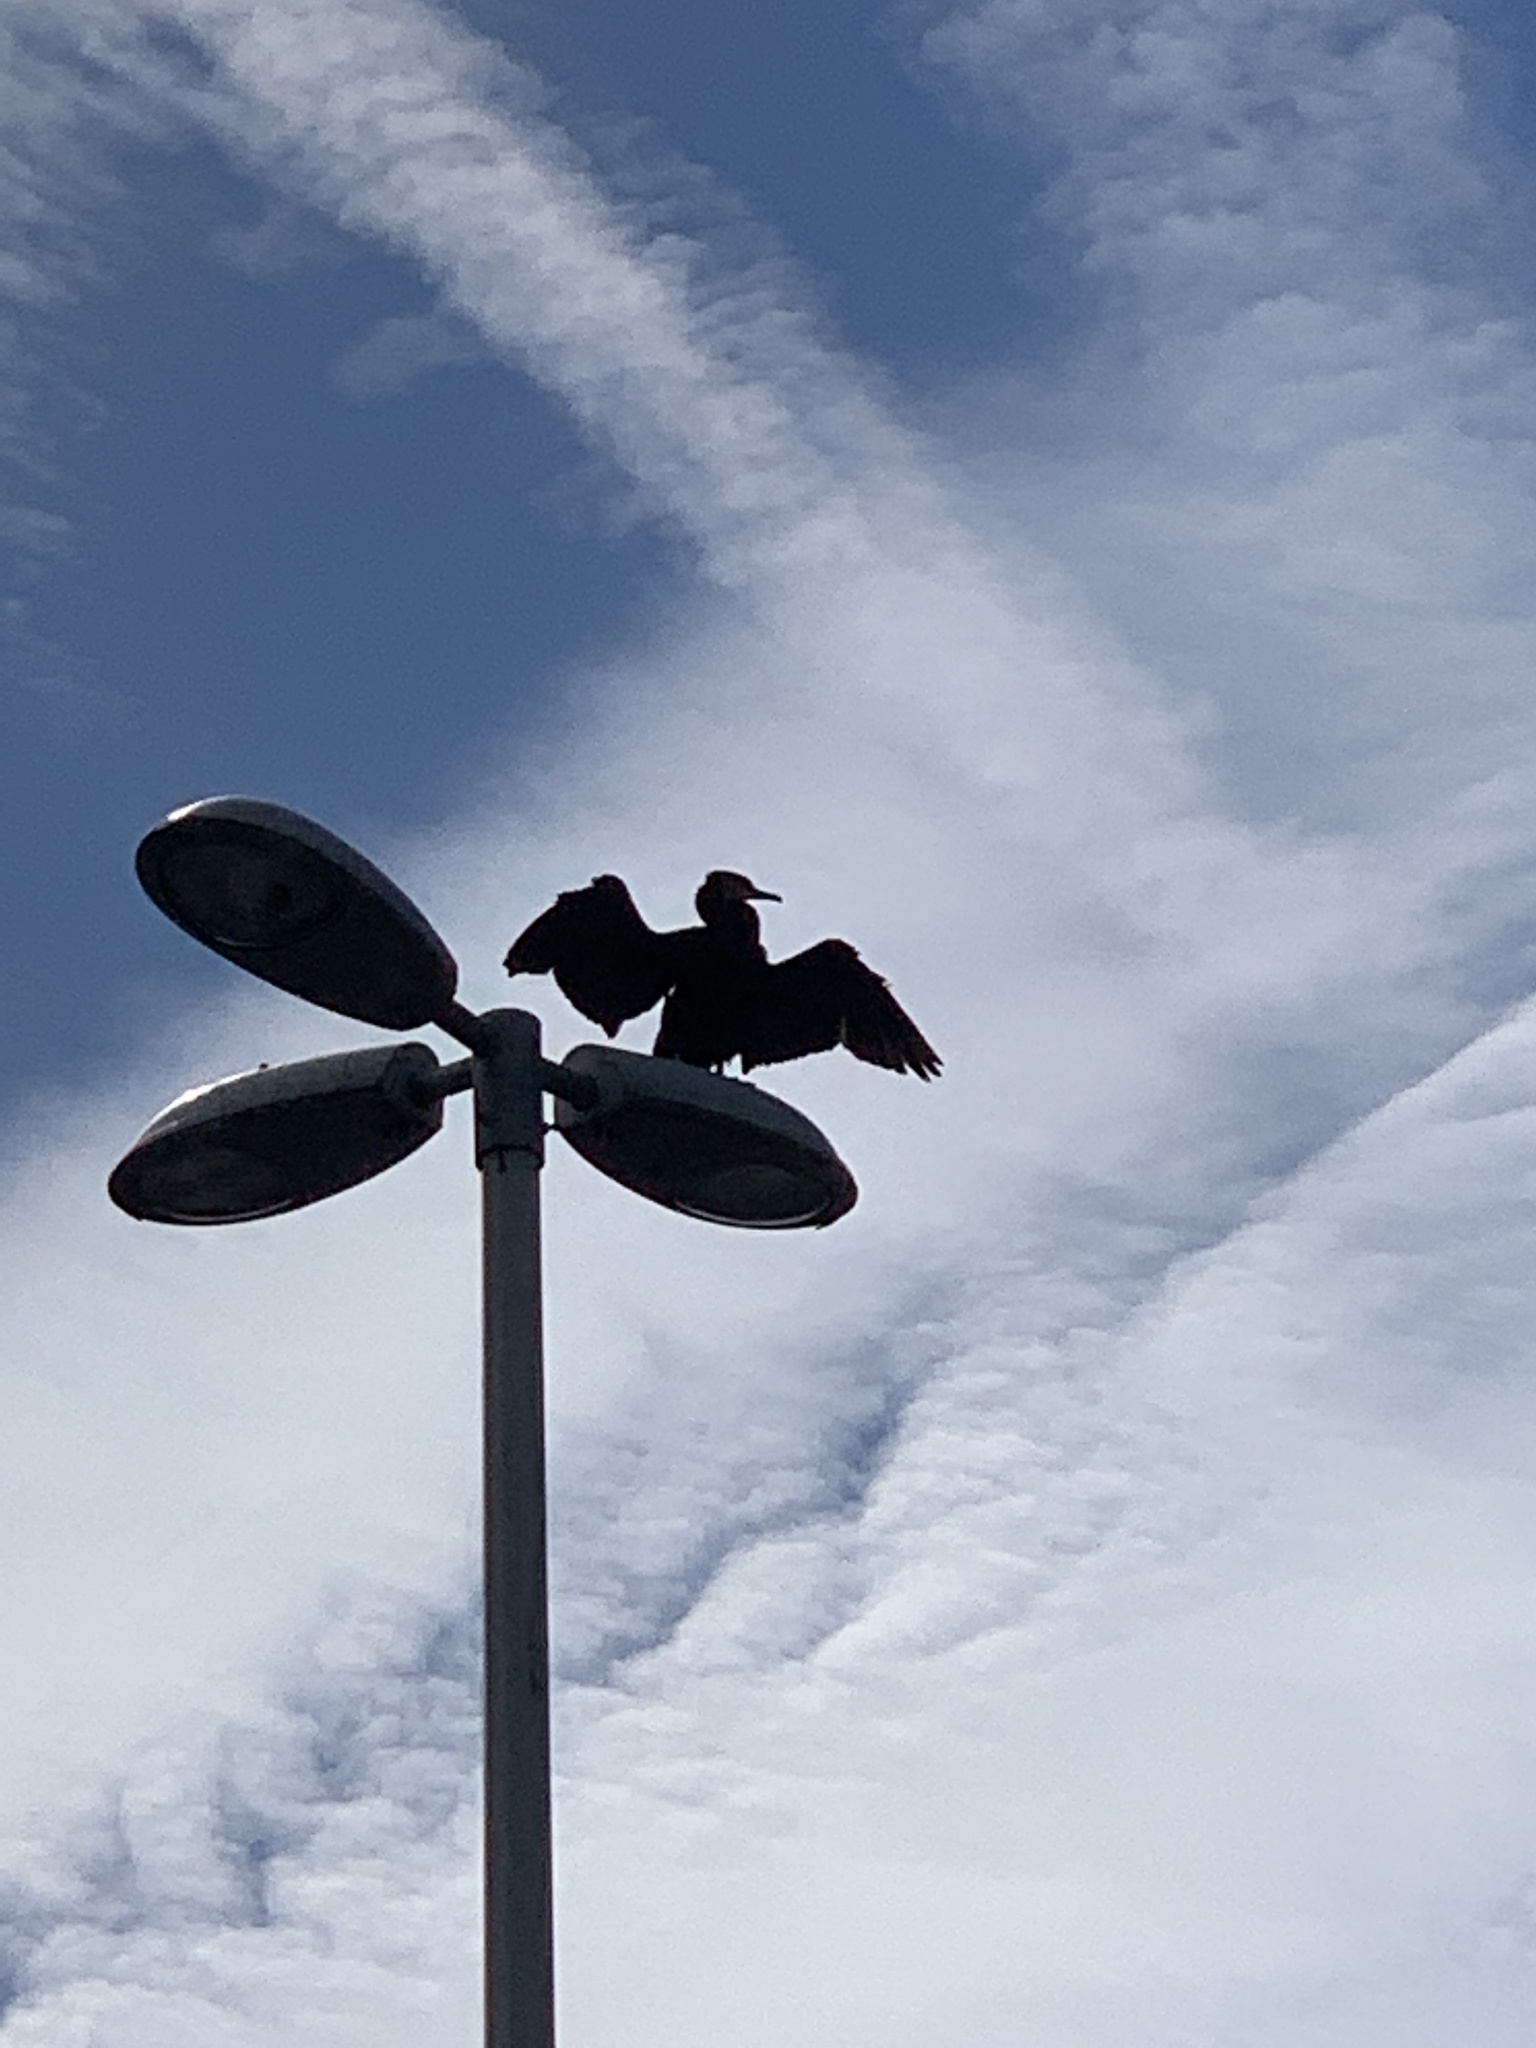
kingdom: Animalia
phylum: Chordata
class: Aves
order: Suliformes
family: Phalacrocoracidae
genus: Phalacrocorax
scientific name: Phalacrocorax carbo
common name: Great cormorant
